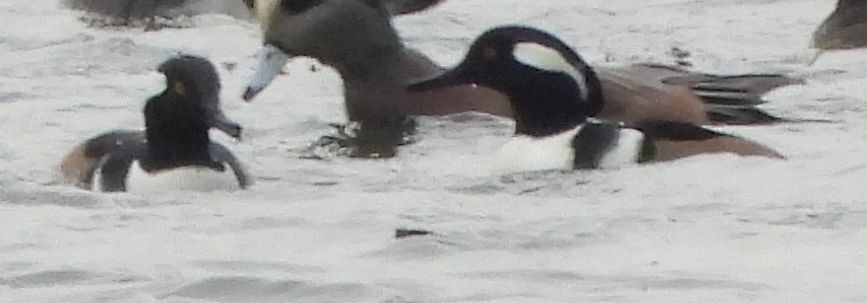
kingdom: Animalia
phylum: Chordata
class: Aves
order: Anseriformes
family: Anatidae
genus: Lophodytes
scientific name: Lophodytes cucullatus
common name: Hooded merganser
